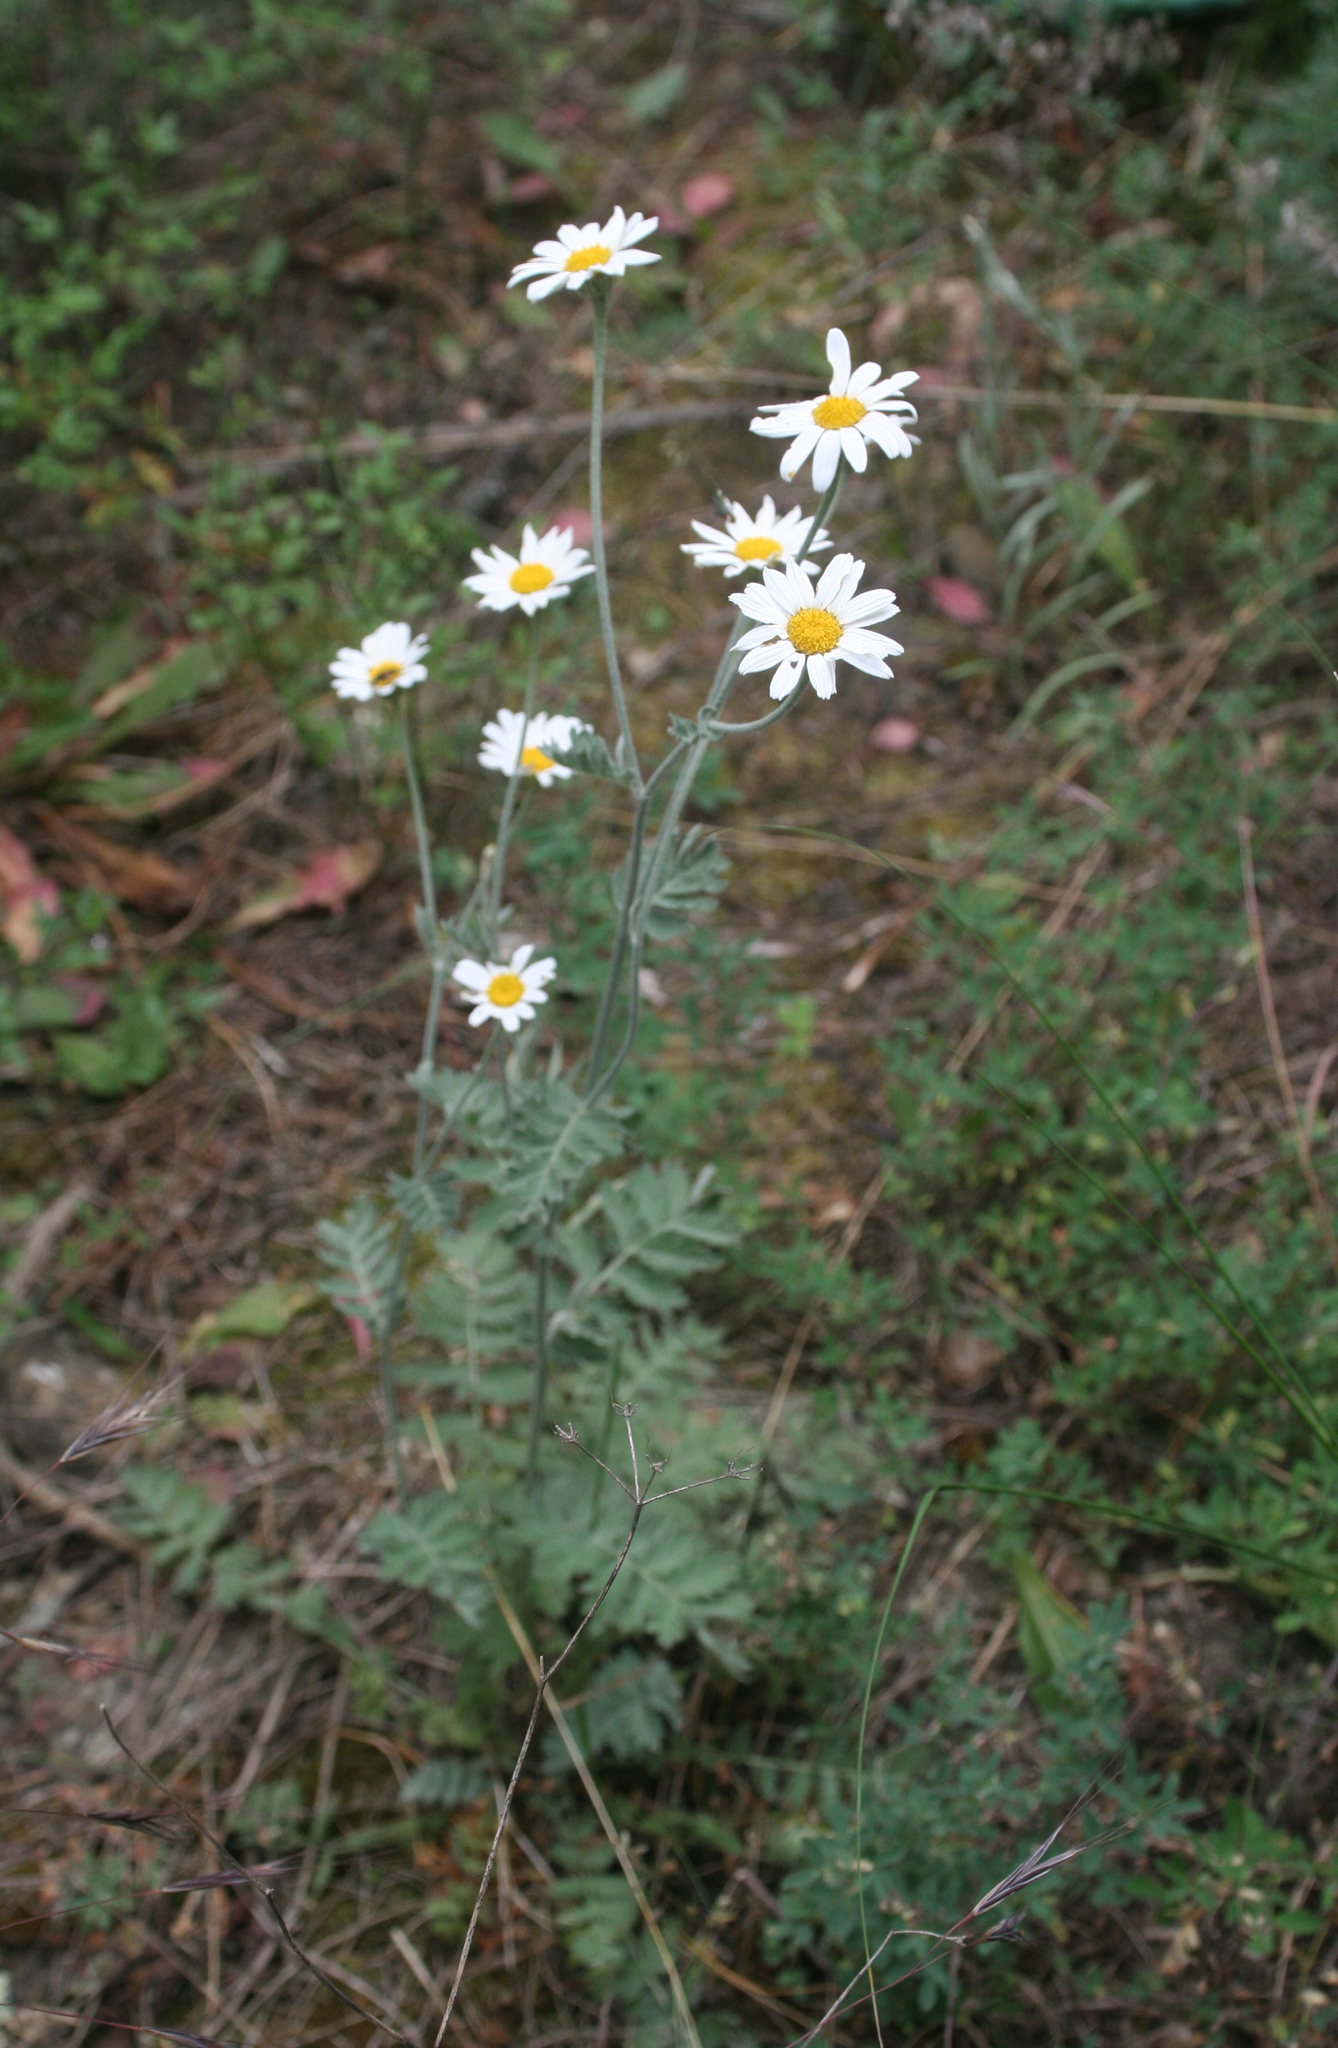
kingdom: Plantae
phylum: Tracheophyta
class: Magnoliopsida
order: Asterales
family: Asteraceae
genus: Tanacetum
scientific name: Tanacetum poteriifolium
